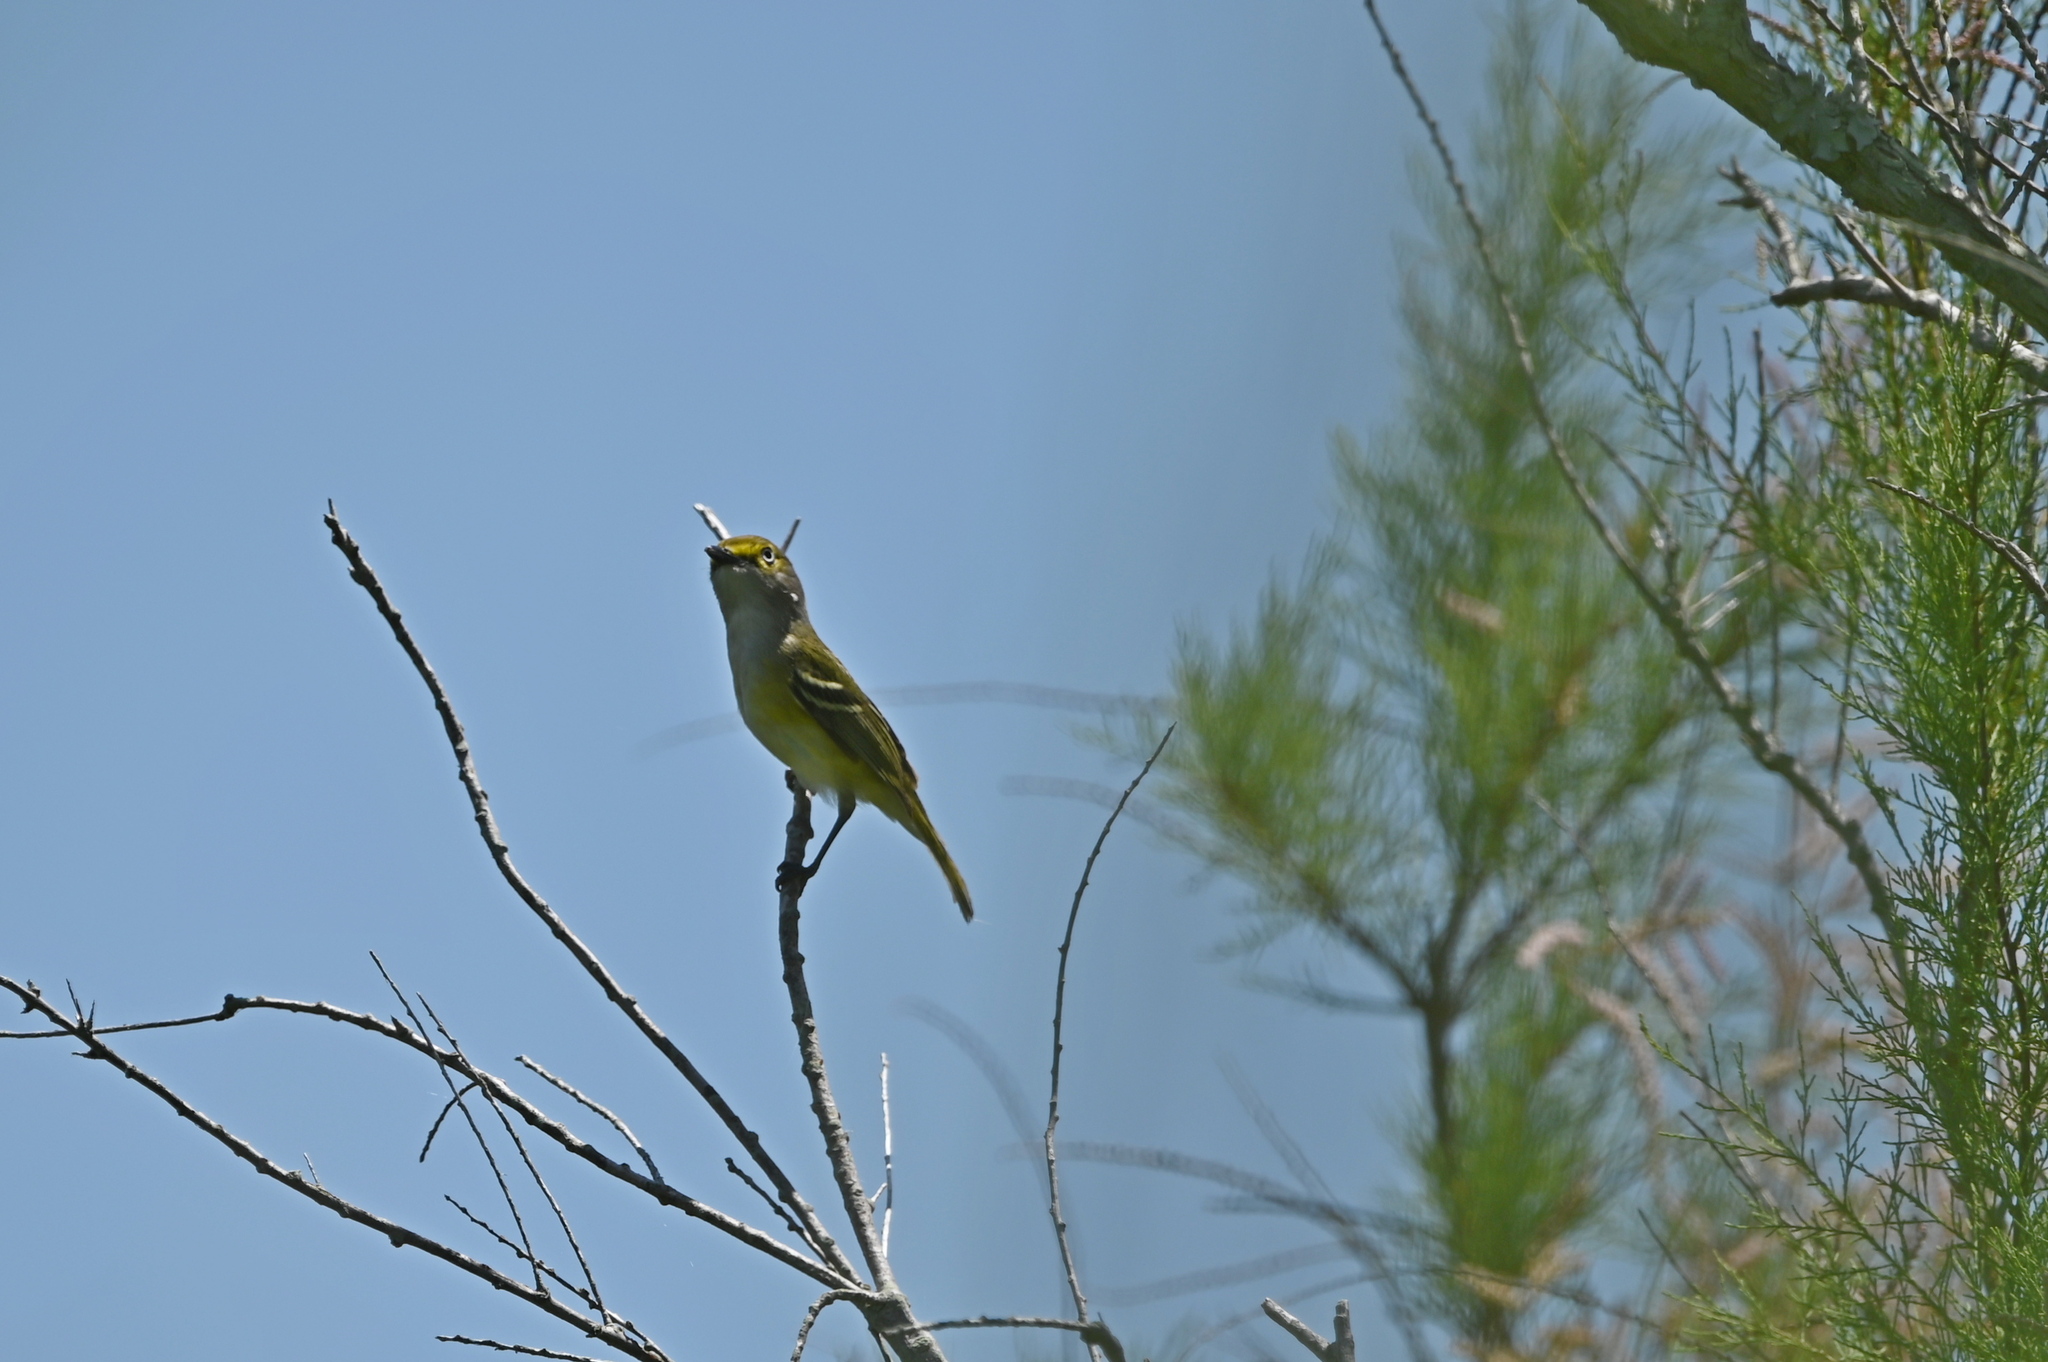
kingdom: Animalia
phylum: Chordata
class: Aves
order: Passeriformes
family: Vireonidae
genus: Vireo
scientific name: Vireo griseus
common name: White-eyed vireo
